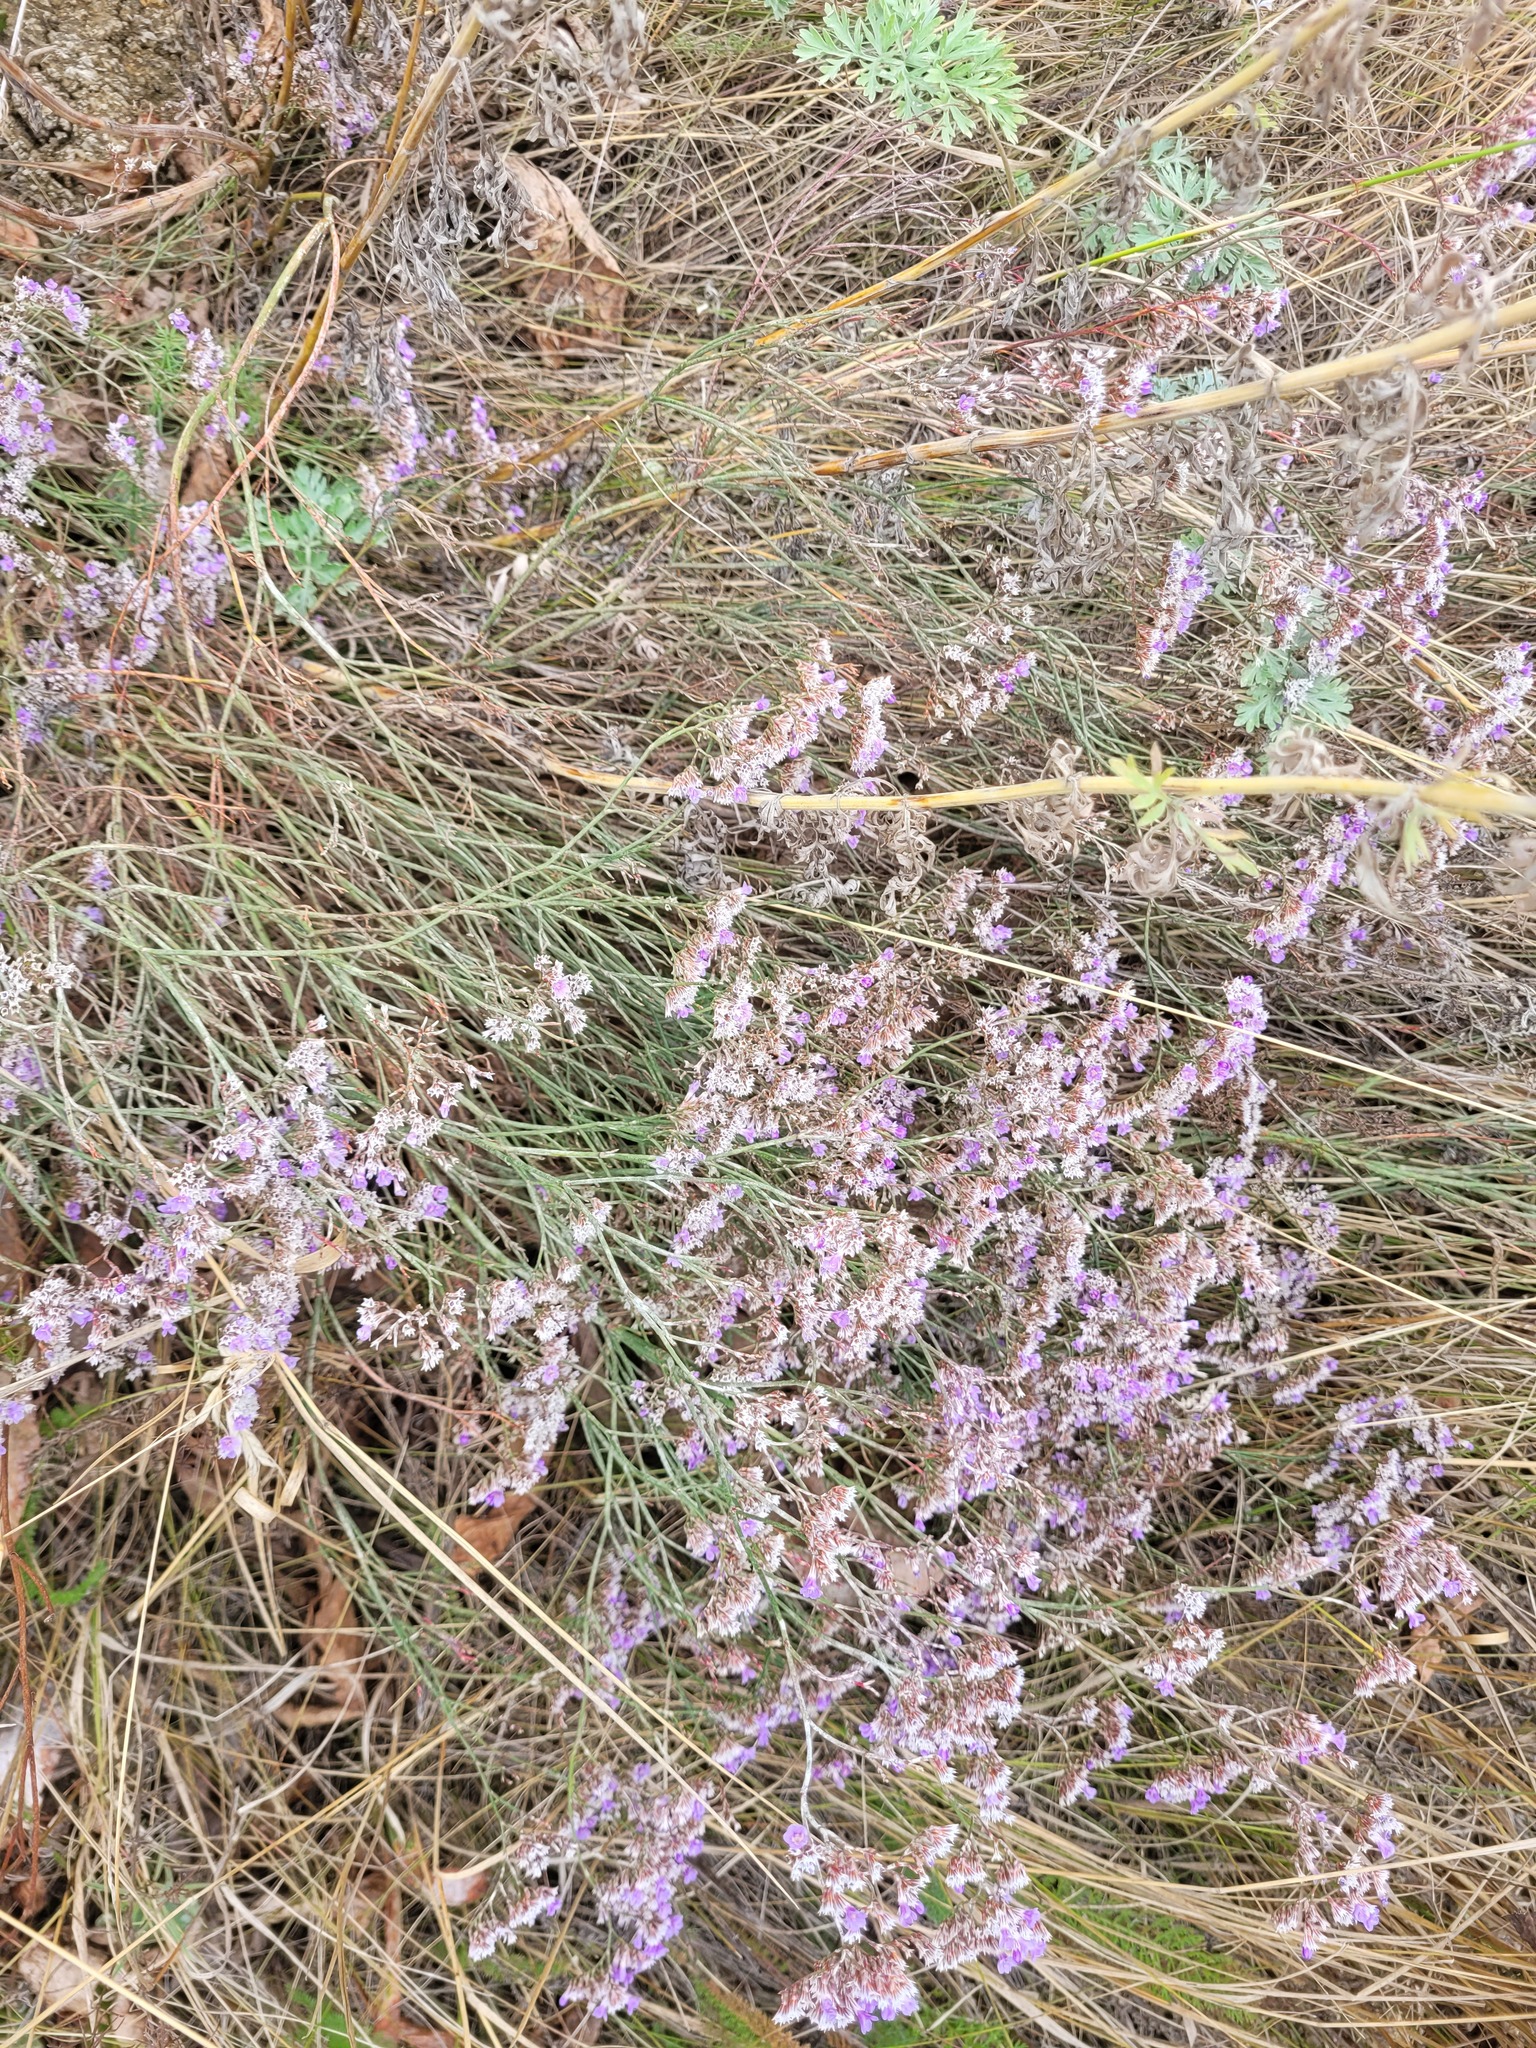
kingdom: Plantae
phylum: Tracheophyta
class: Magnoliopsida
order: Caryophyllales
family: Plumbaginaceae
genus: Limonium
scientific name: Limonium bungei
